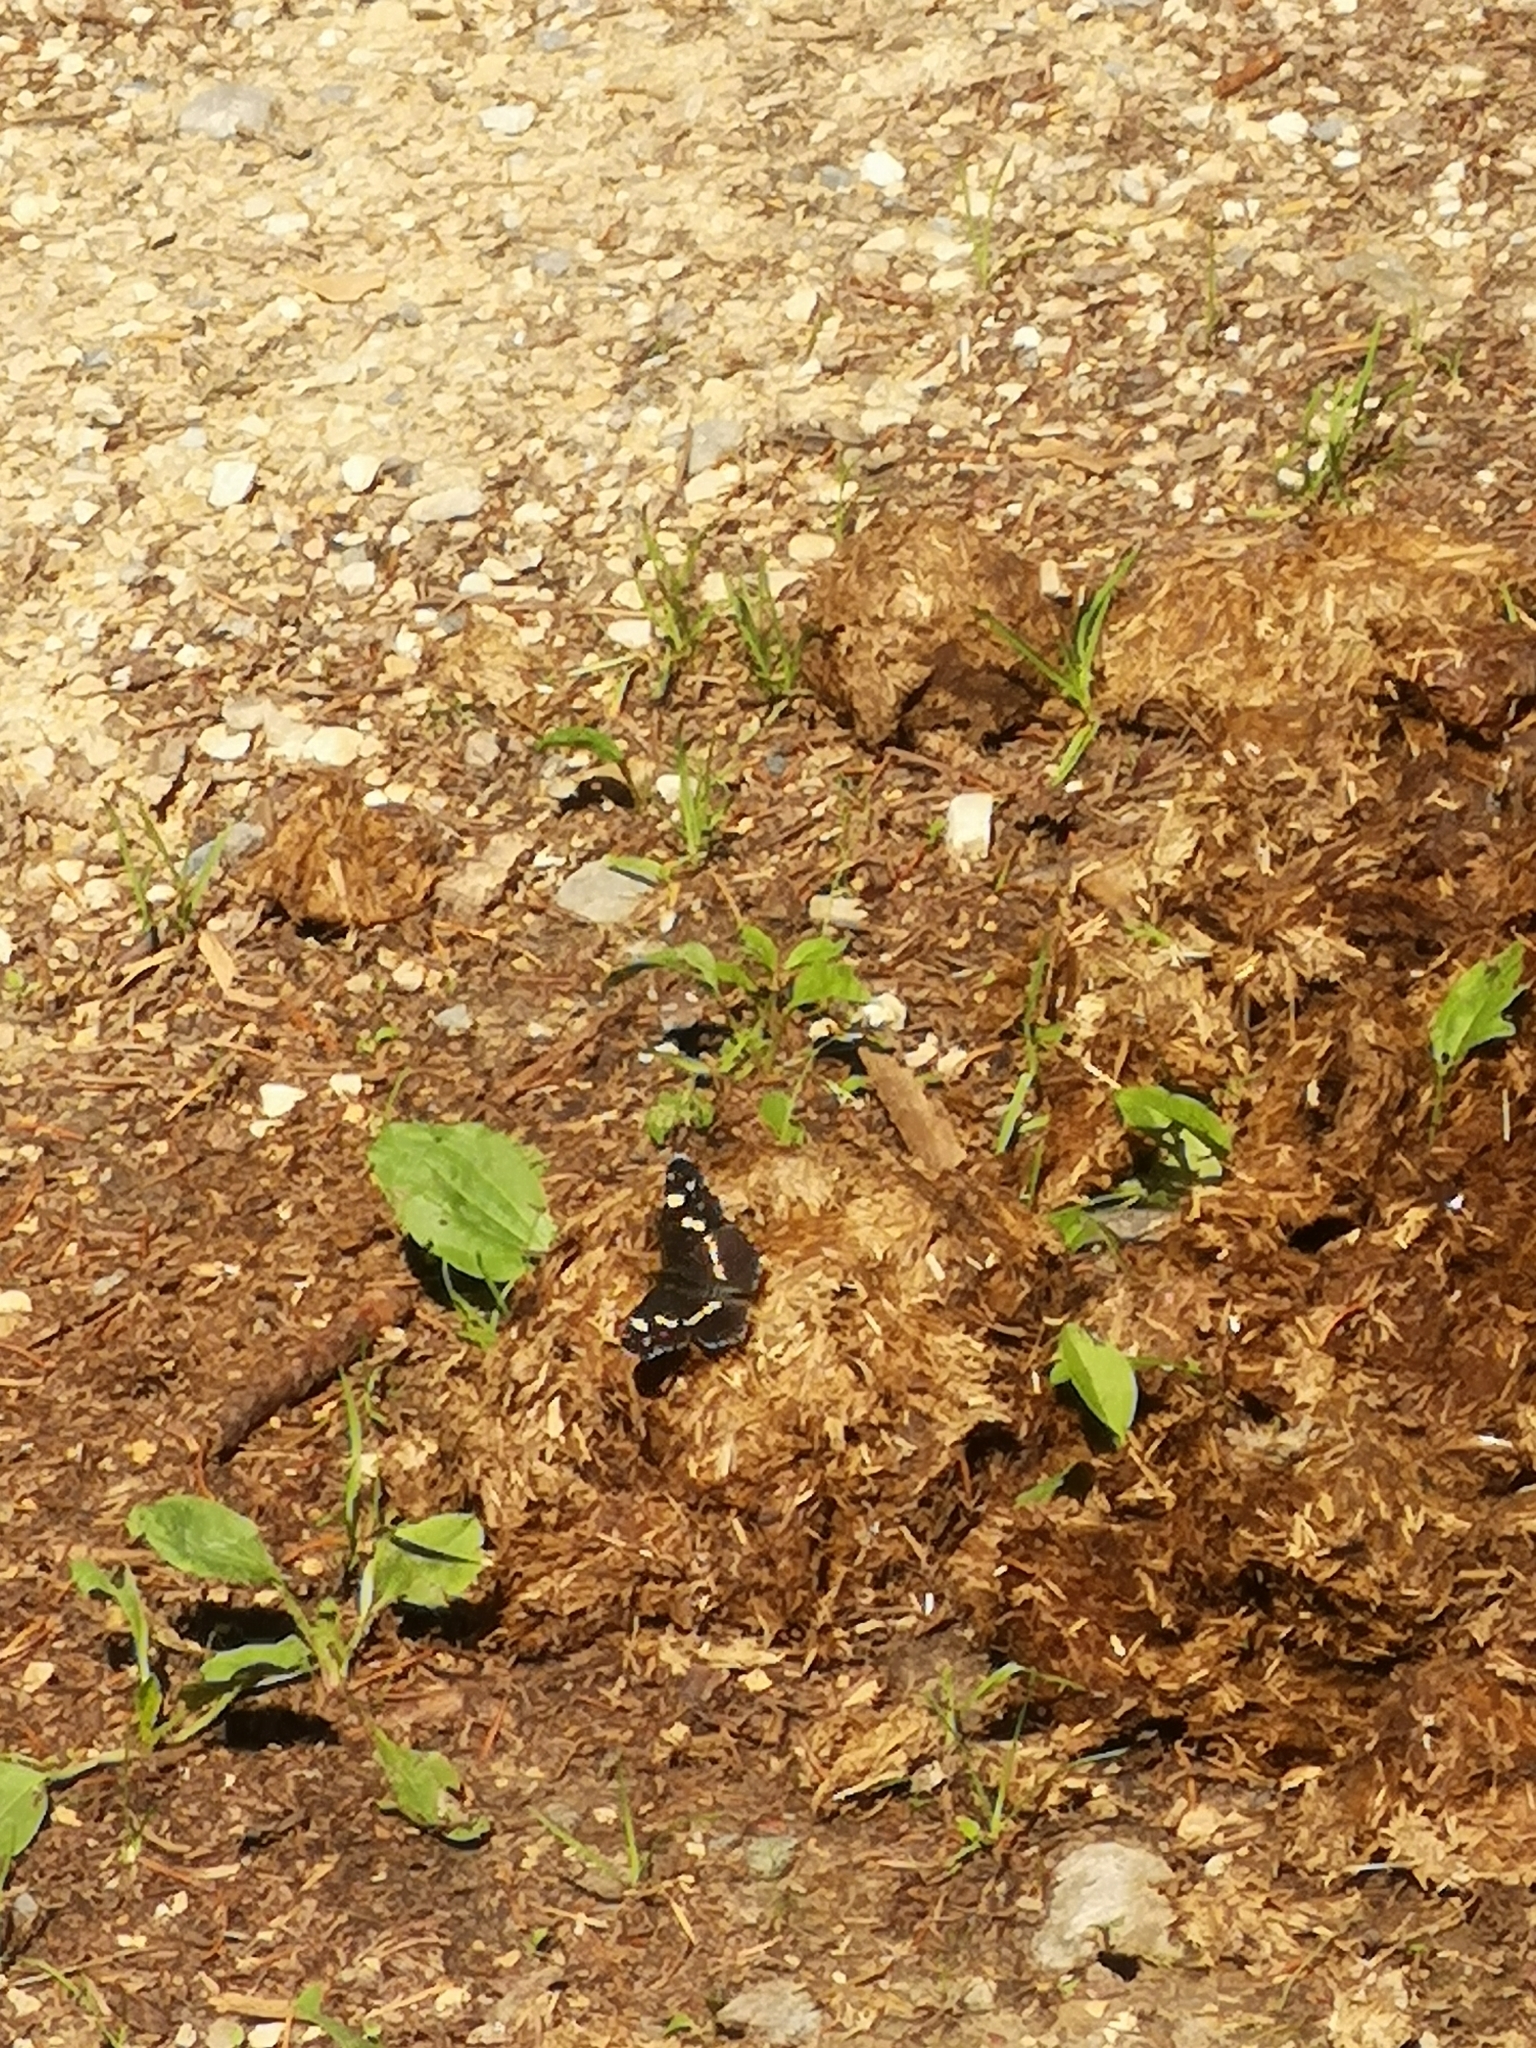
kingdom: Animalia
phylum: Arthropoda
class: Insecta
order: Lepidoptera
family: Nymphalidae
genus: Araschnia
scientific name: Araschnia levana
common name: Map butterfly
